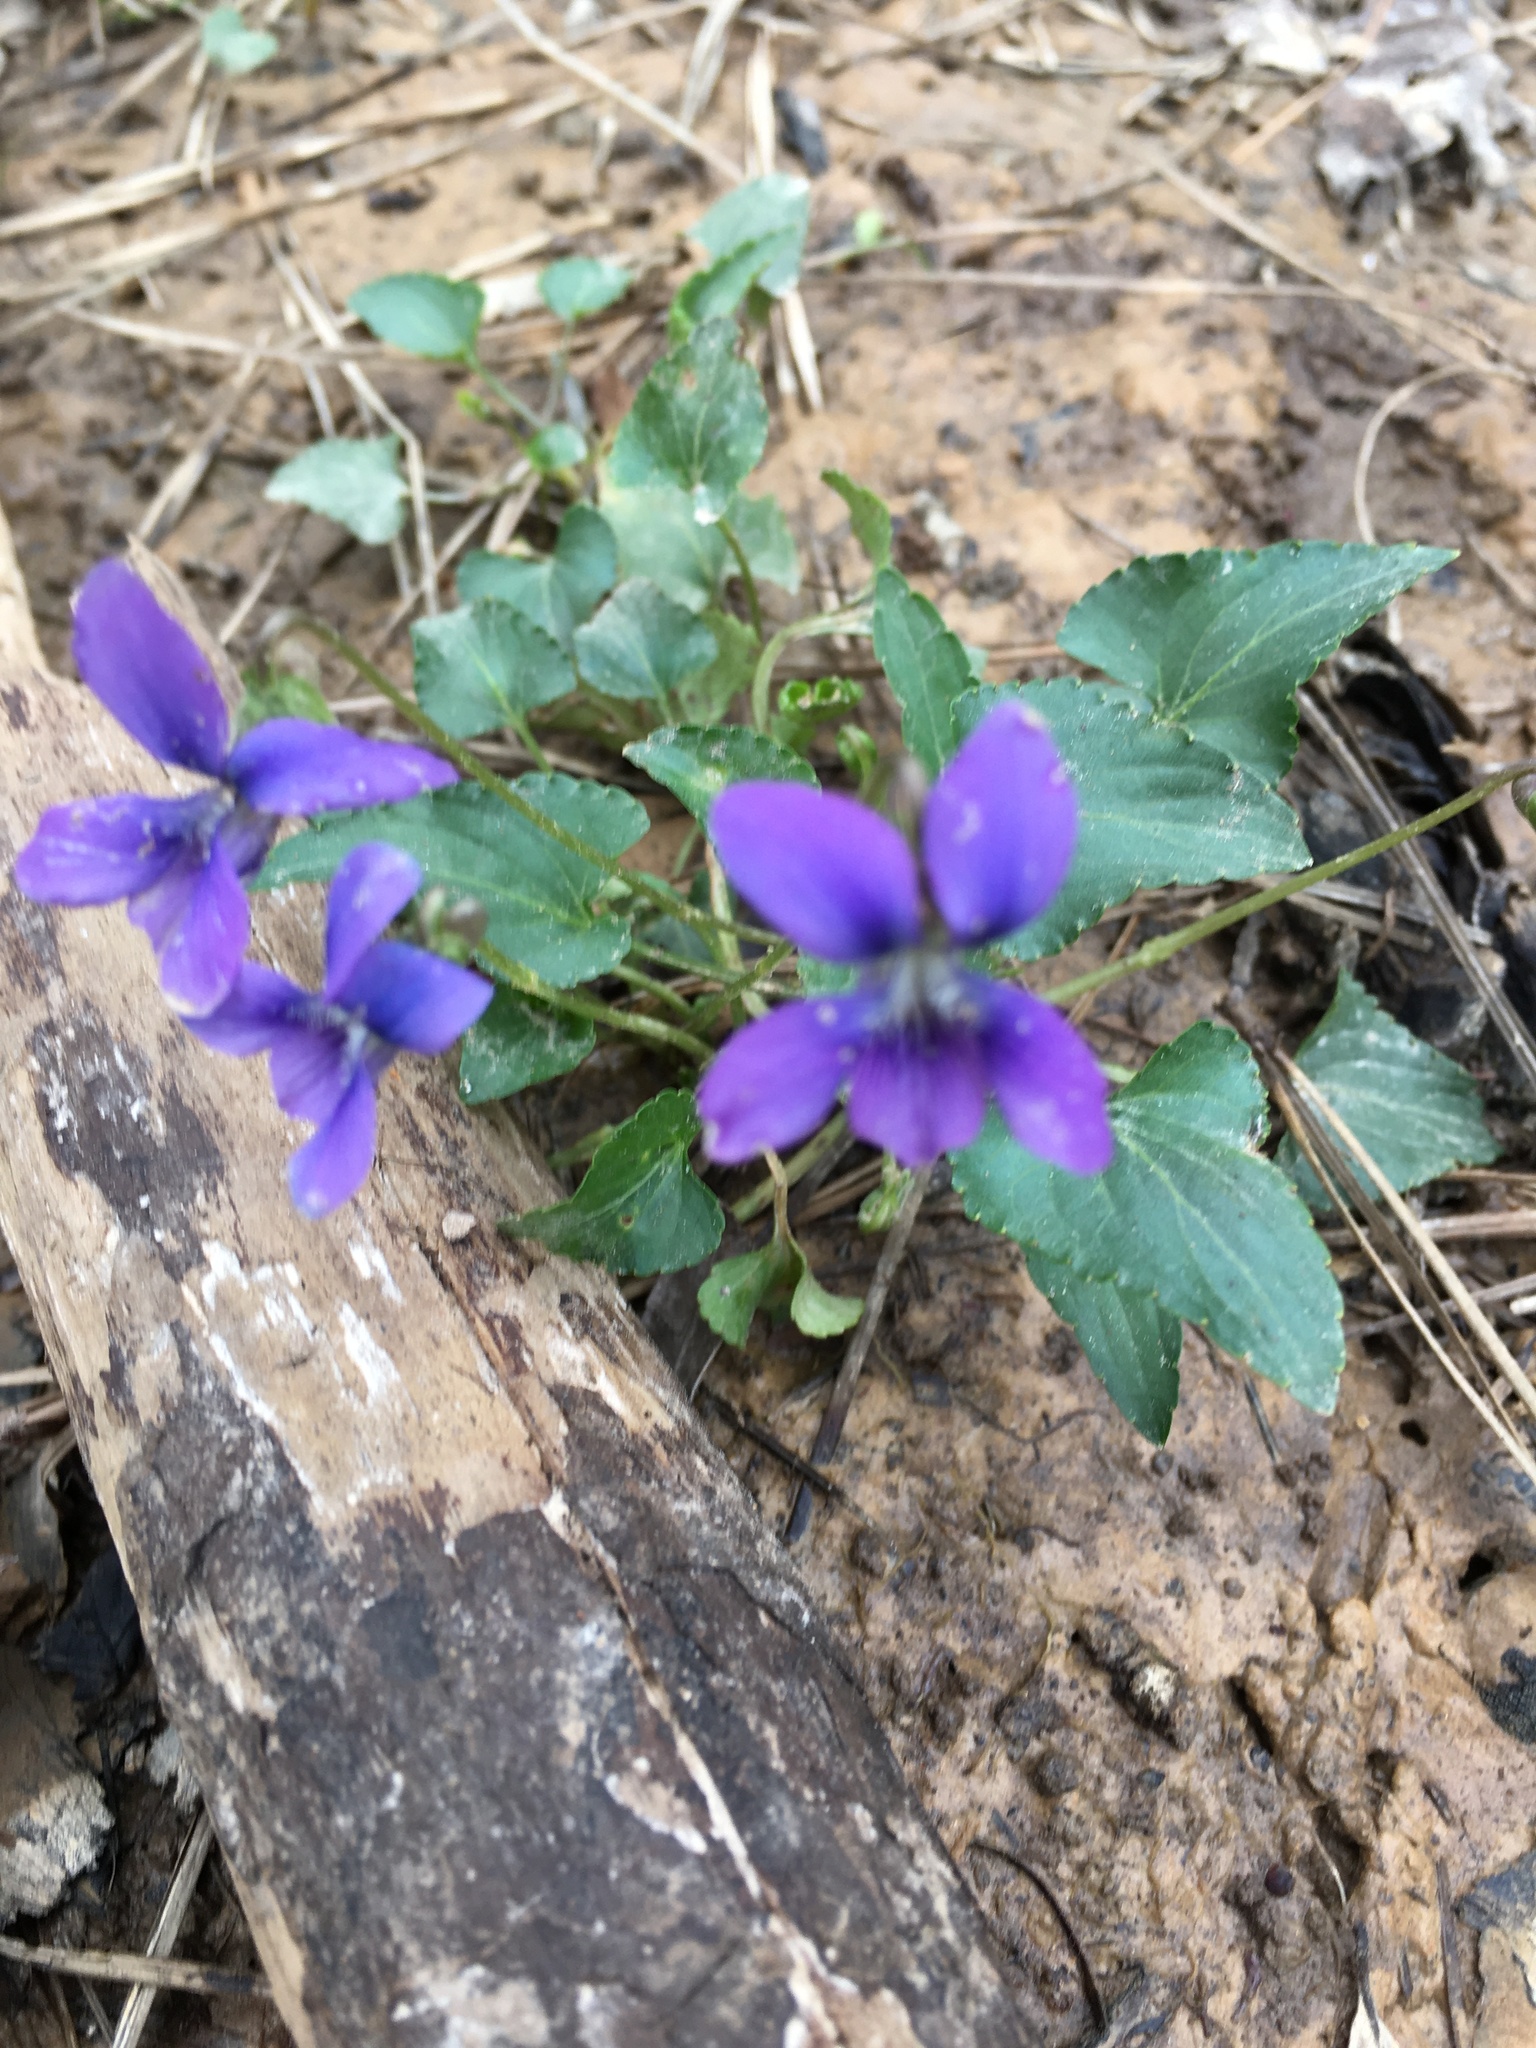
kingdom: Plantae
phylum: Tracheophyta
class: Magnoliopsida
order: Malpighiales
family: Violaceae
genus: Viola
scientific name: Viola sororia
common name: Dooryard violet
